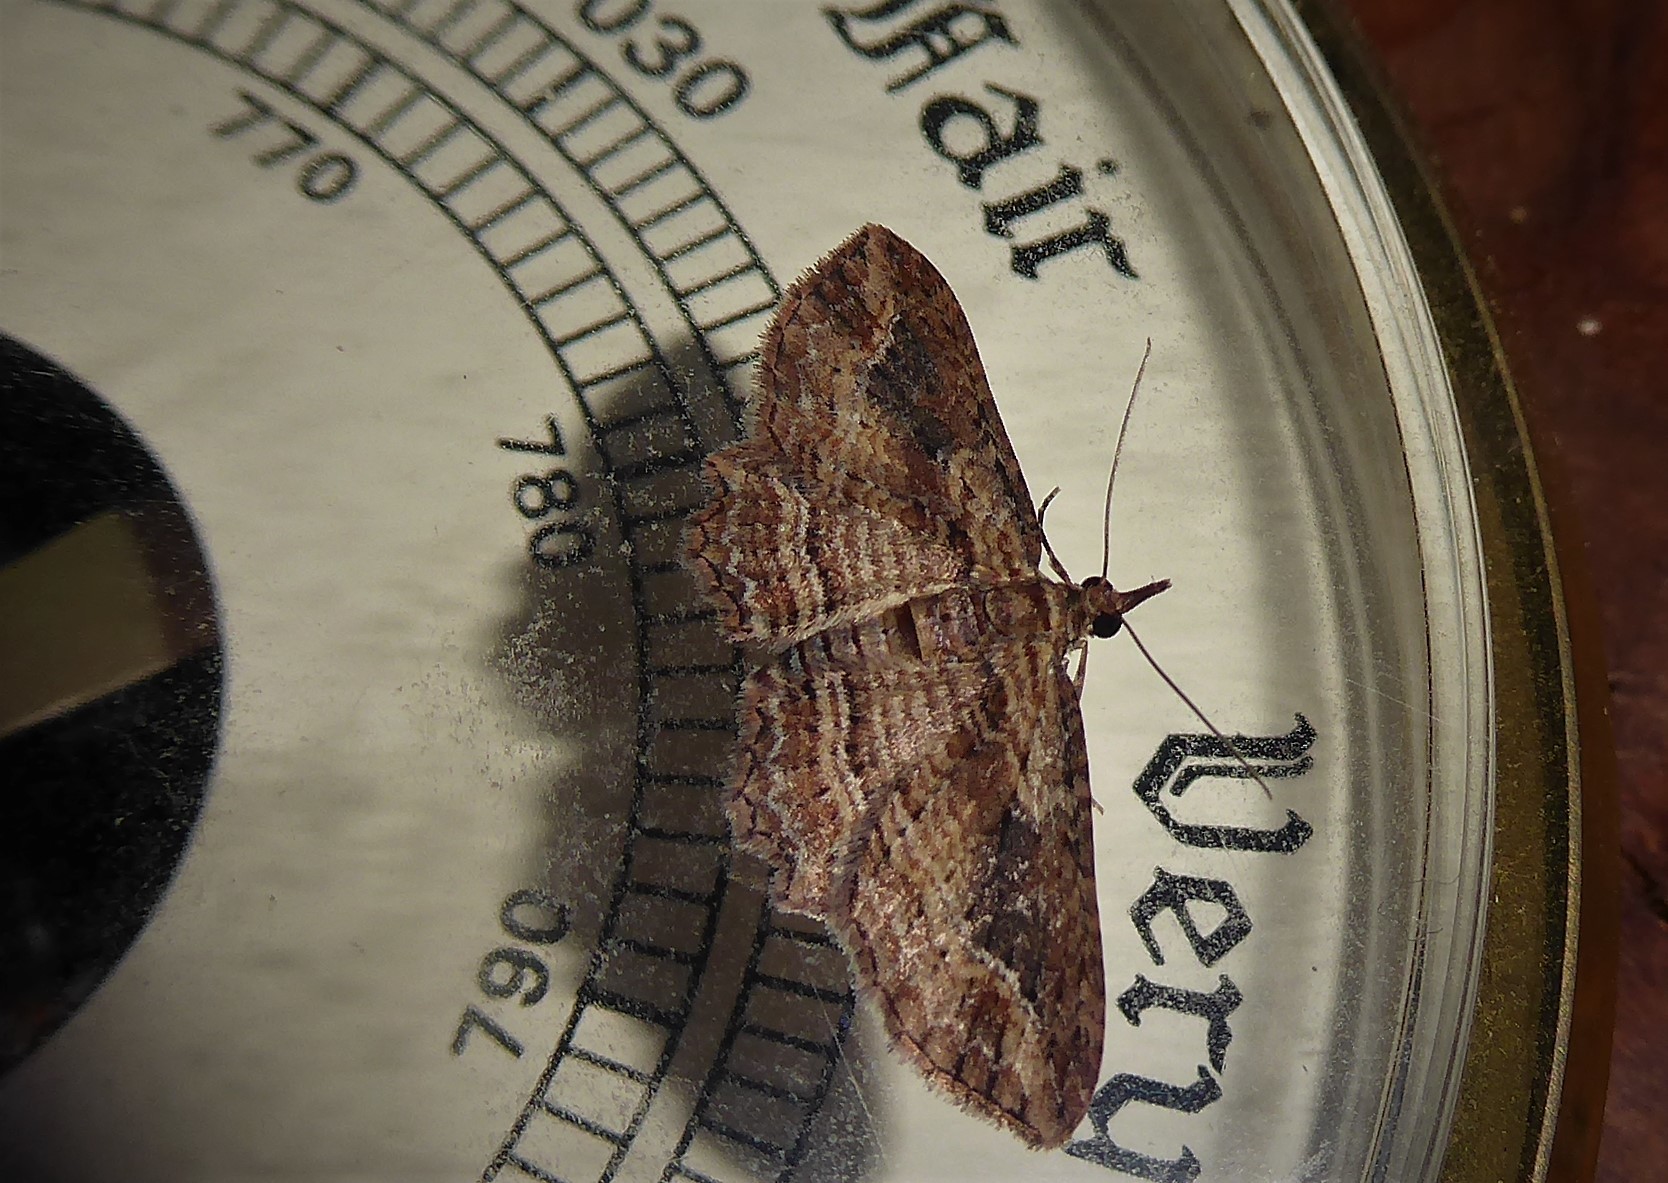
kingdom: Animalia
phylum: Arthropoda
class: Insecta
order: Lepidoptera
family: Geometridae
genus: Chloroclystis
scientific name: Chloroclystis filata
